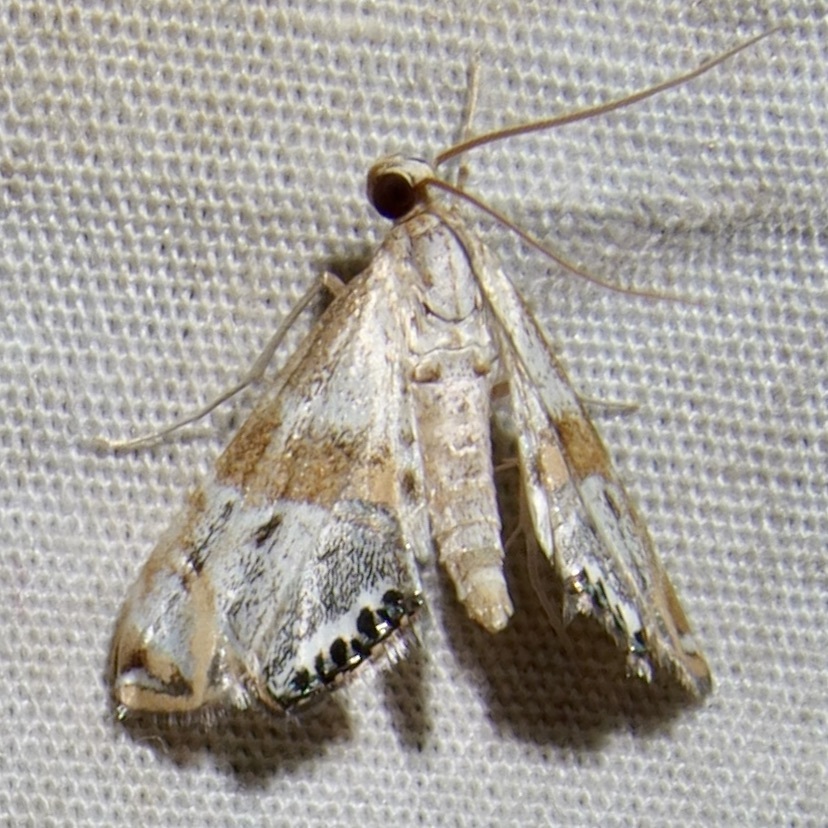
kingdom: Animalia
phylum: Arthropoda
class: Insecta
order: Lepidoptera
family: Crambidae
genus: Petrophila
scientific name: Petrophila jaliscalis
